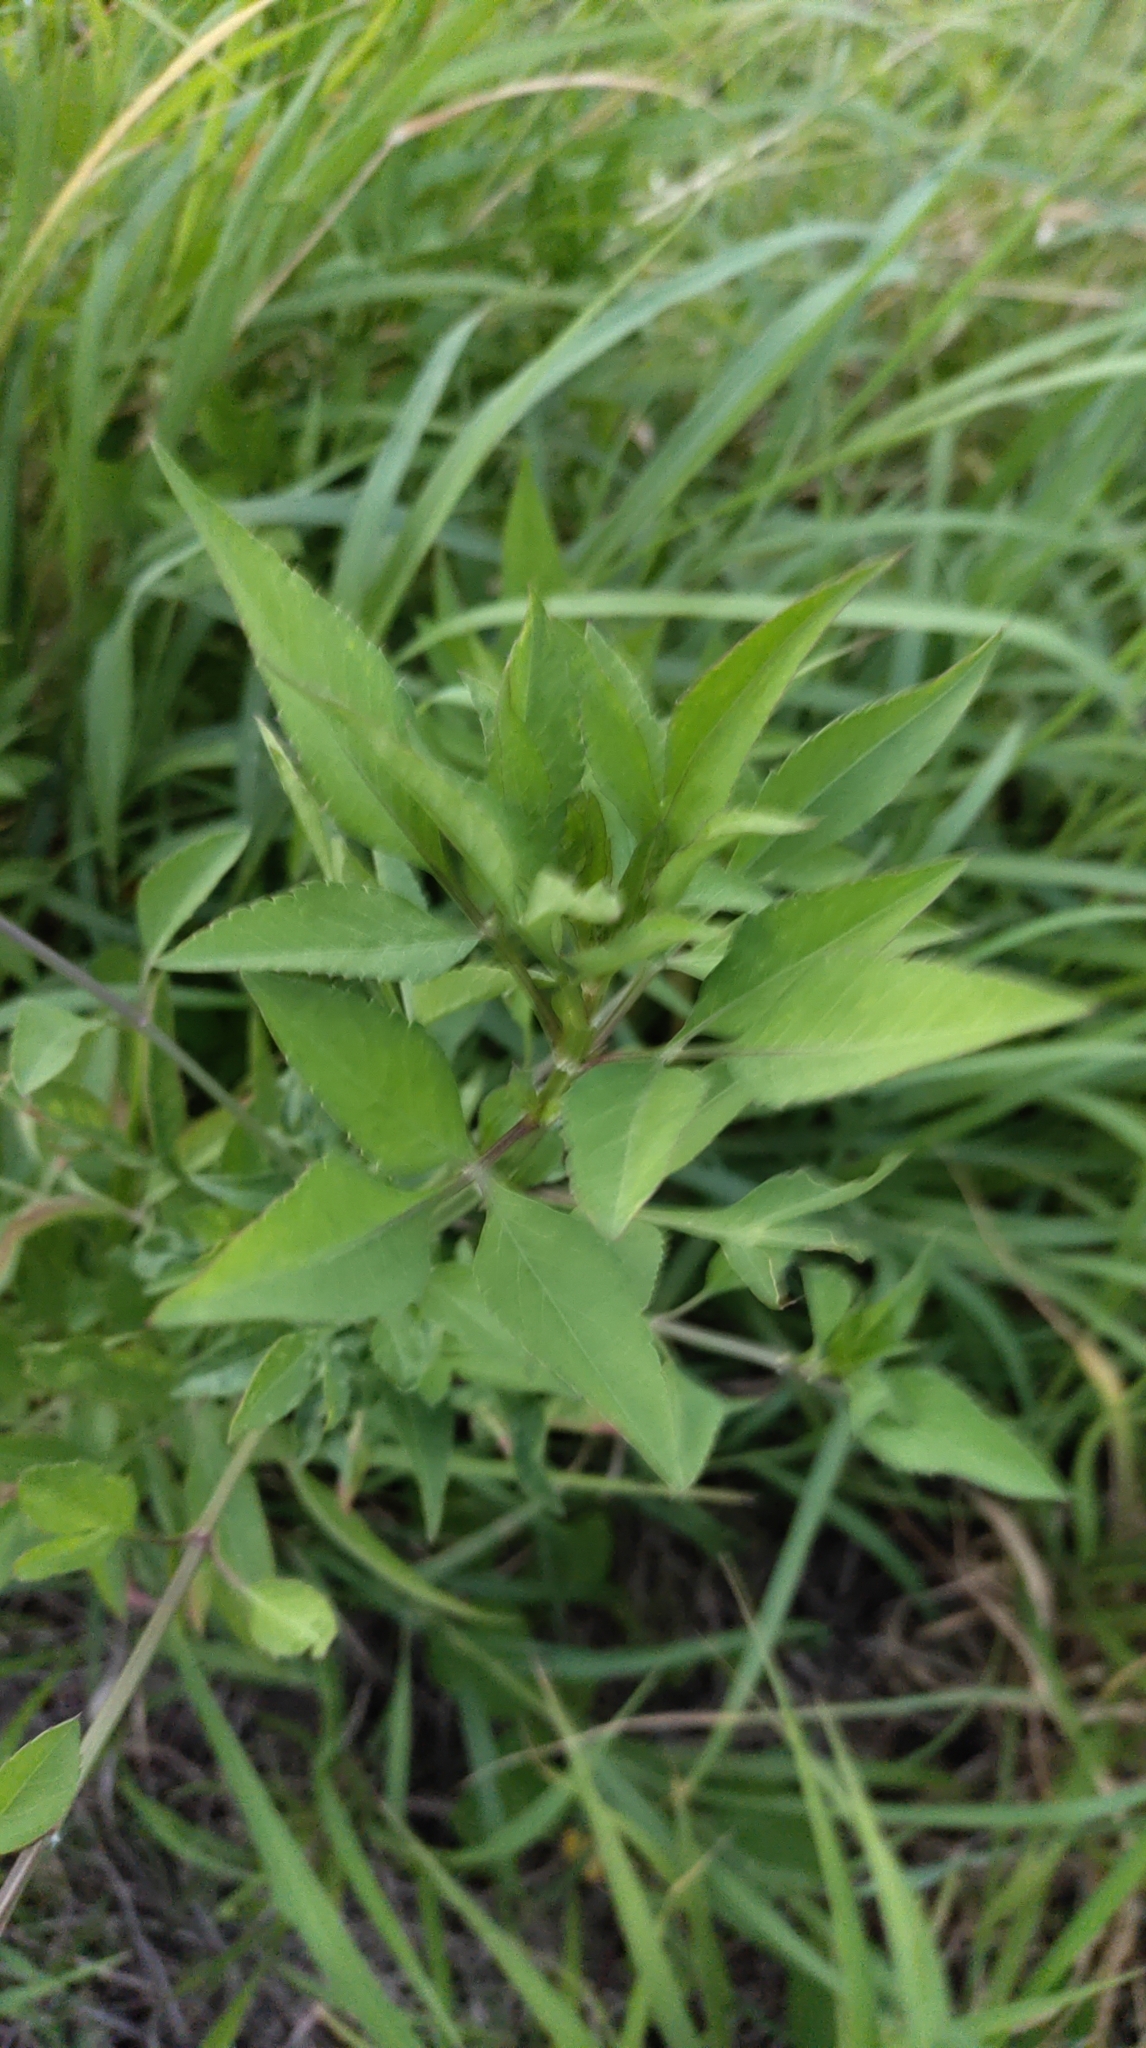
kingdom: Plantae
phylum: Tracheophyta
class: Magnoliopsida
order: Asterales
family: Asteraceae
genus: Bidens
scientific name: Bidens alba
